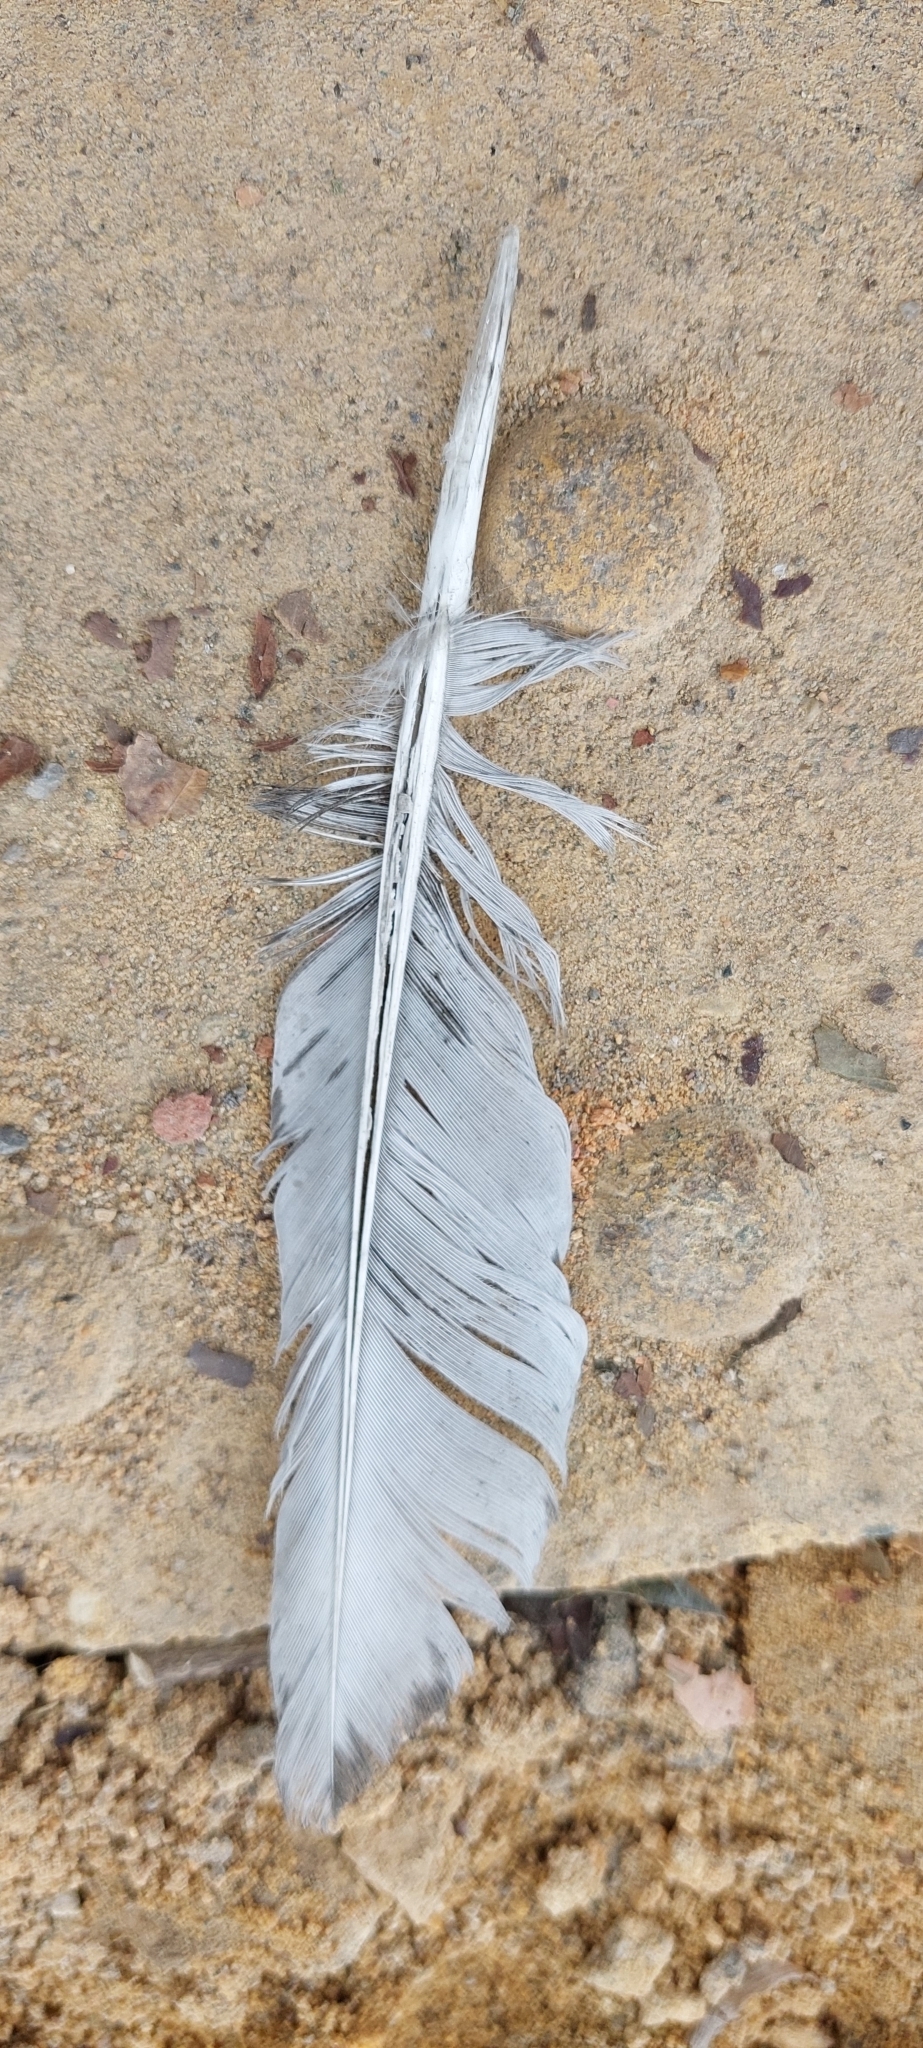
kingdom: Animalia
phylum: Chordata
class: Aves
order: Columbiformes
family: Columbidae
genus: Columba
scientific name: Columba livia
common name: Rock pigeon
